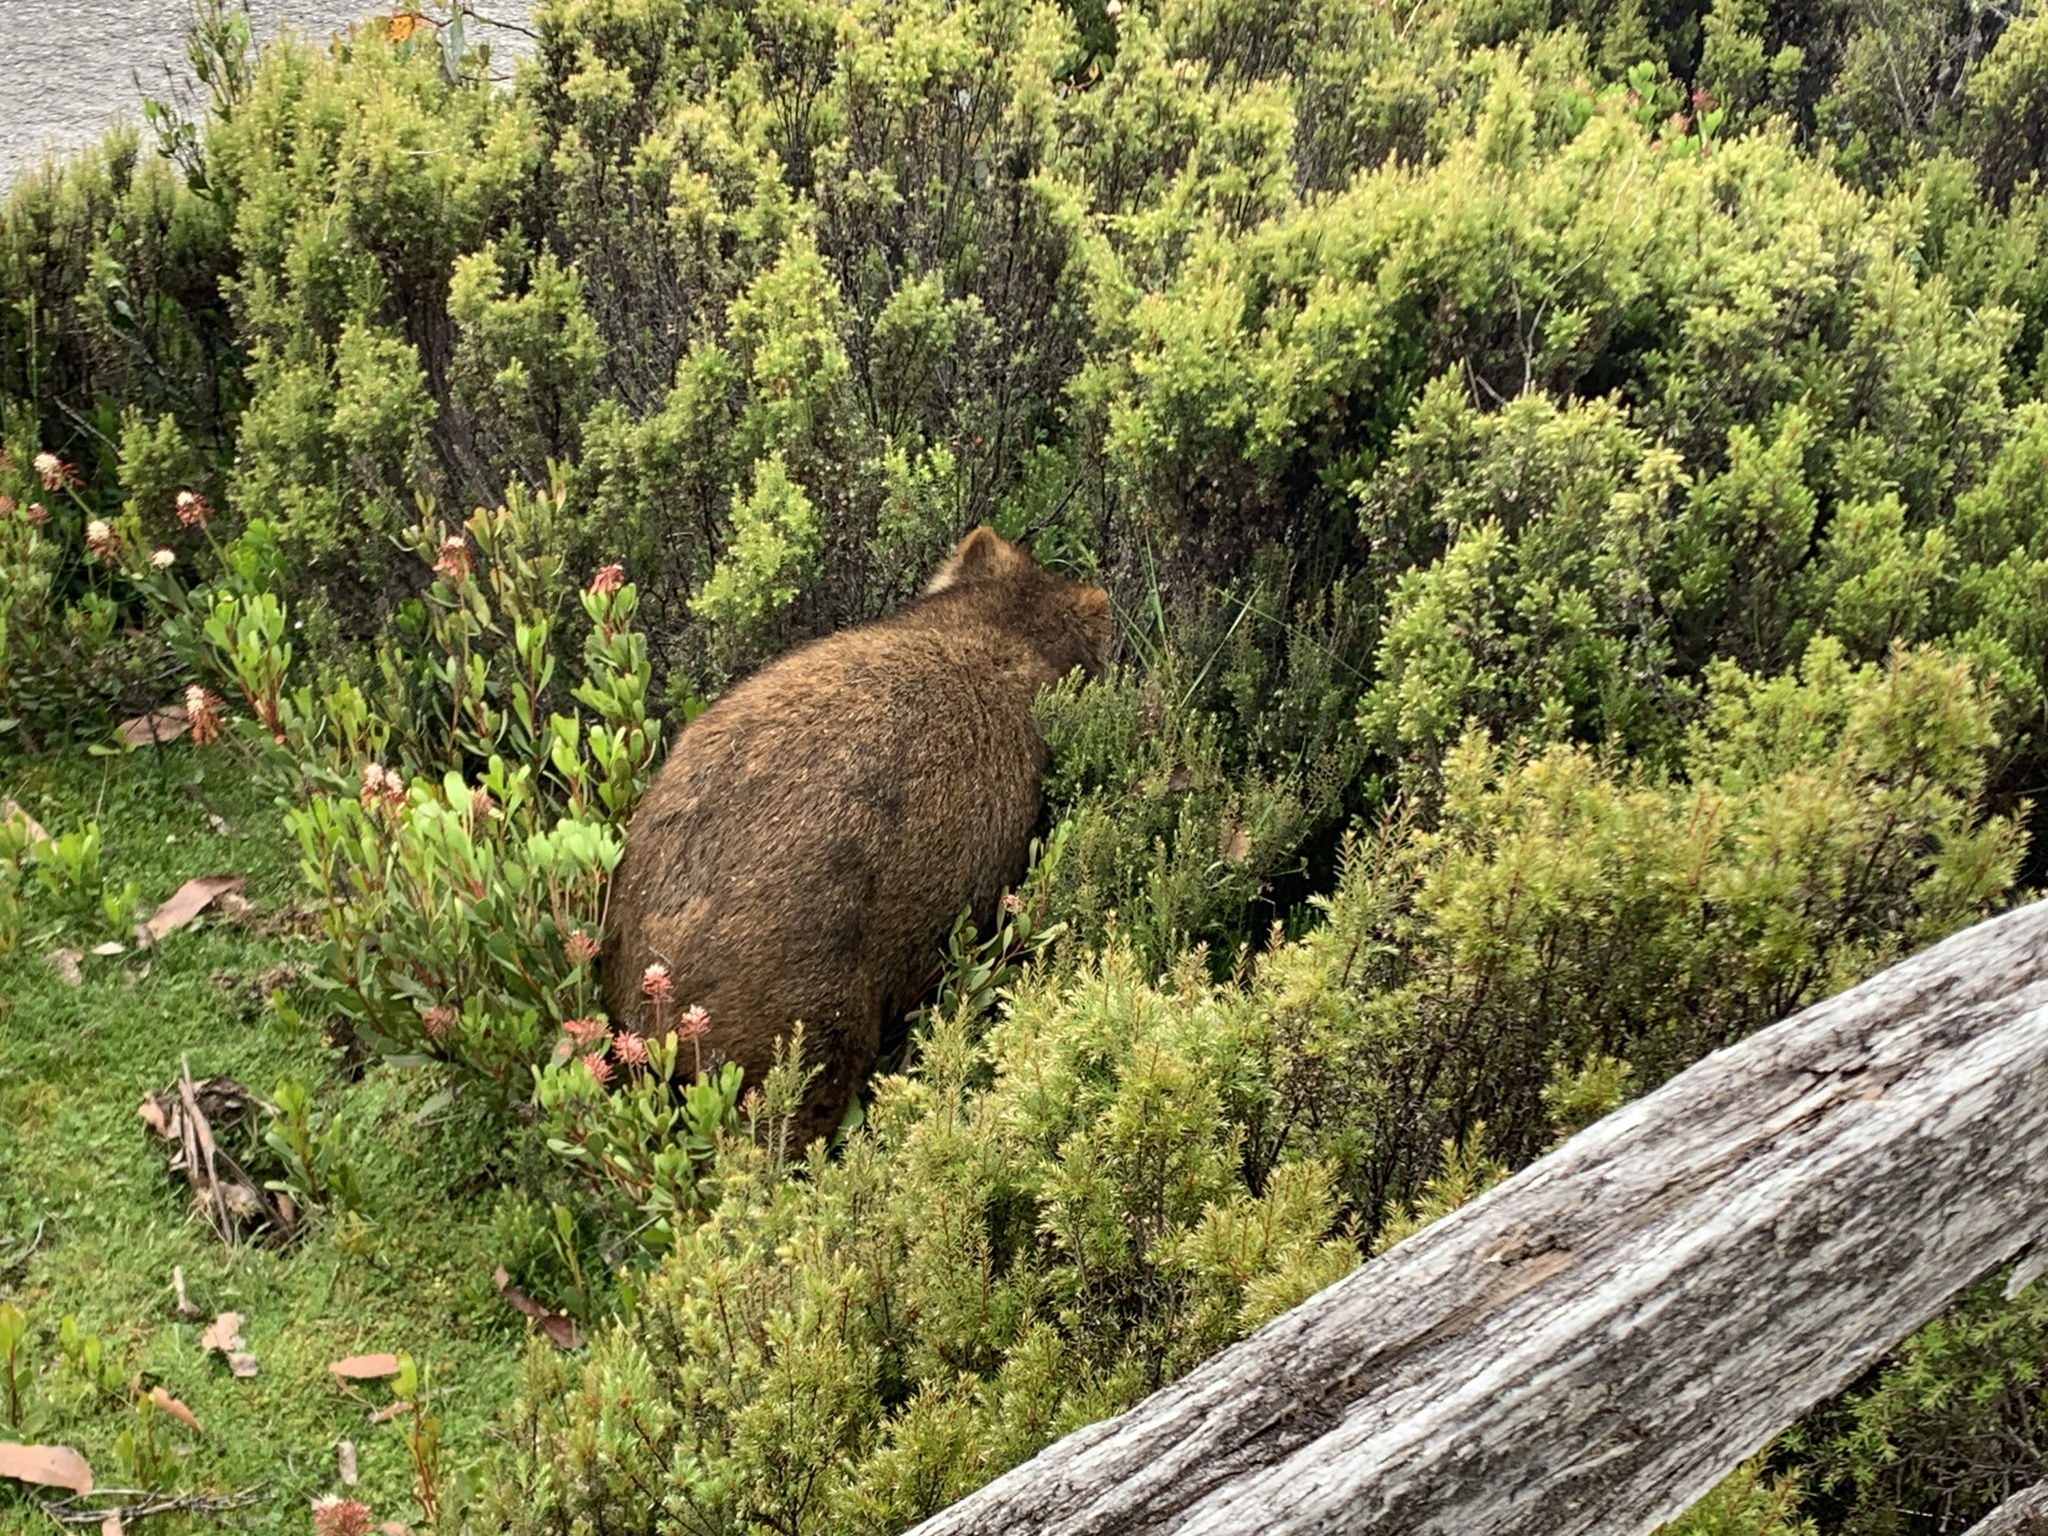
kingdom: Animalia
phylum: Chordata
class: Mammalia
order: Diprotodontia
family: Vombatidae
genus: Vombatus
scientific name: Vombatus ursinus
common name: Common wombat
